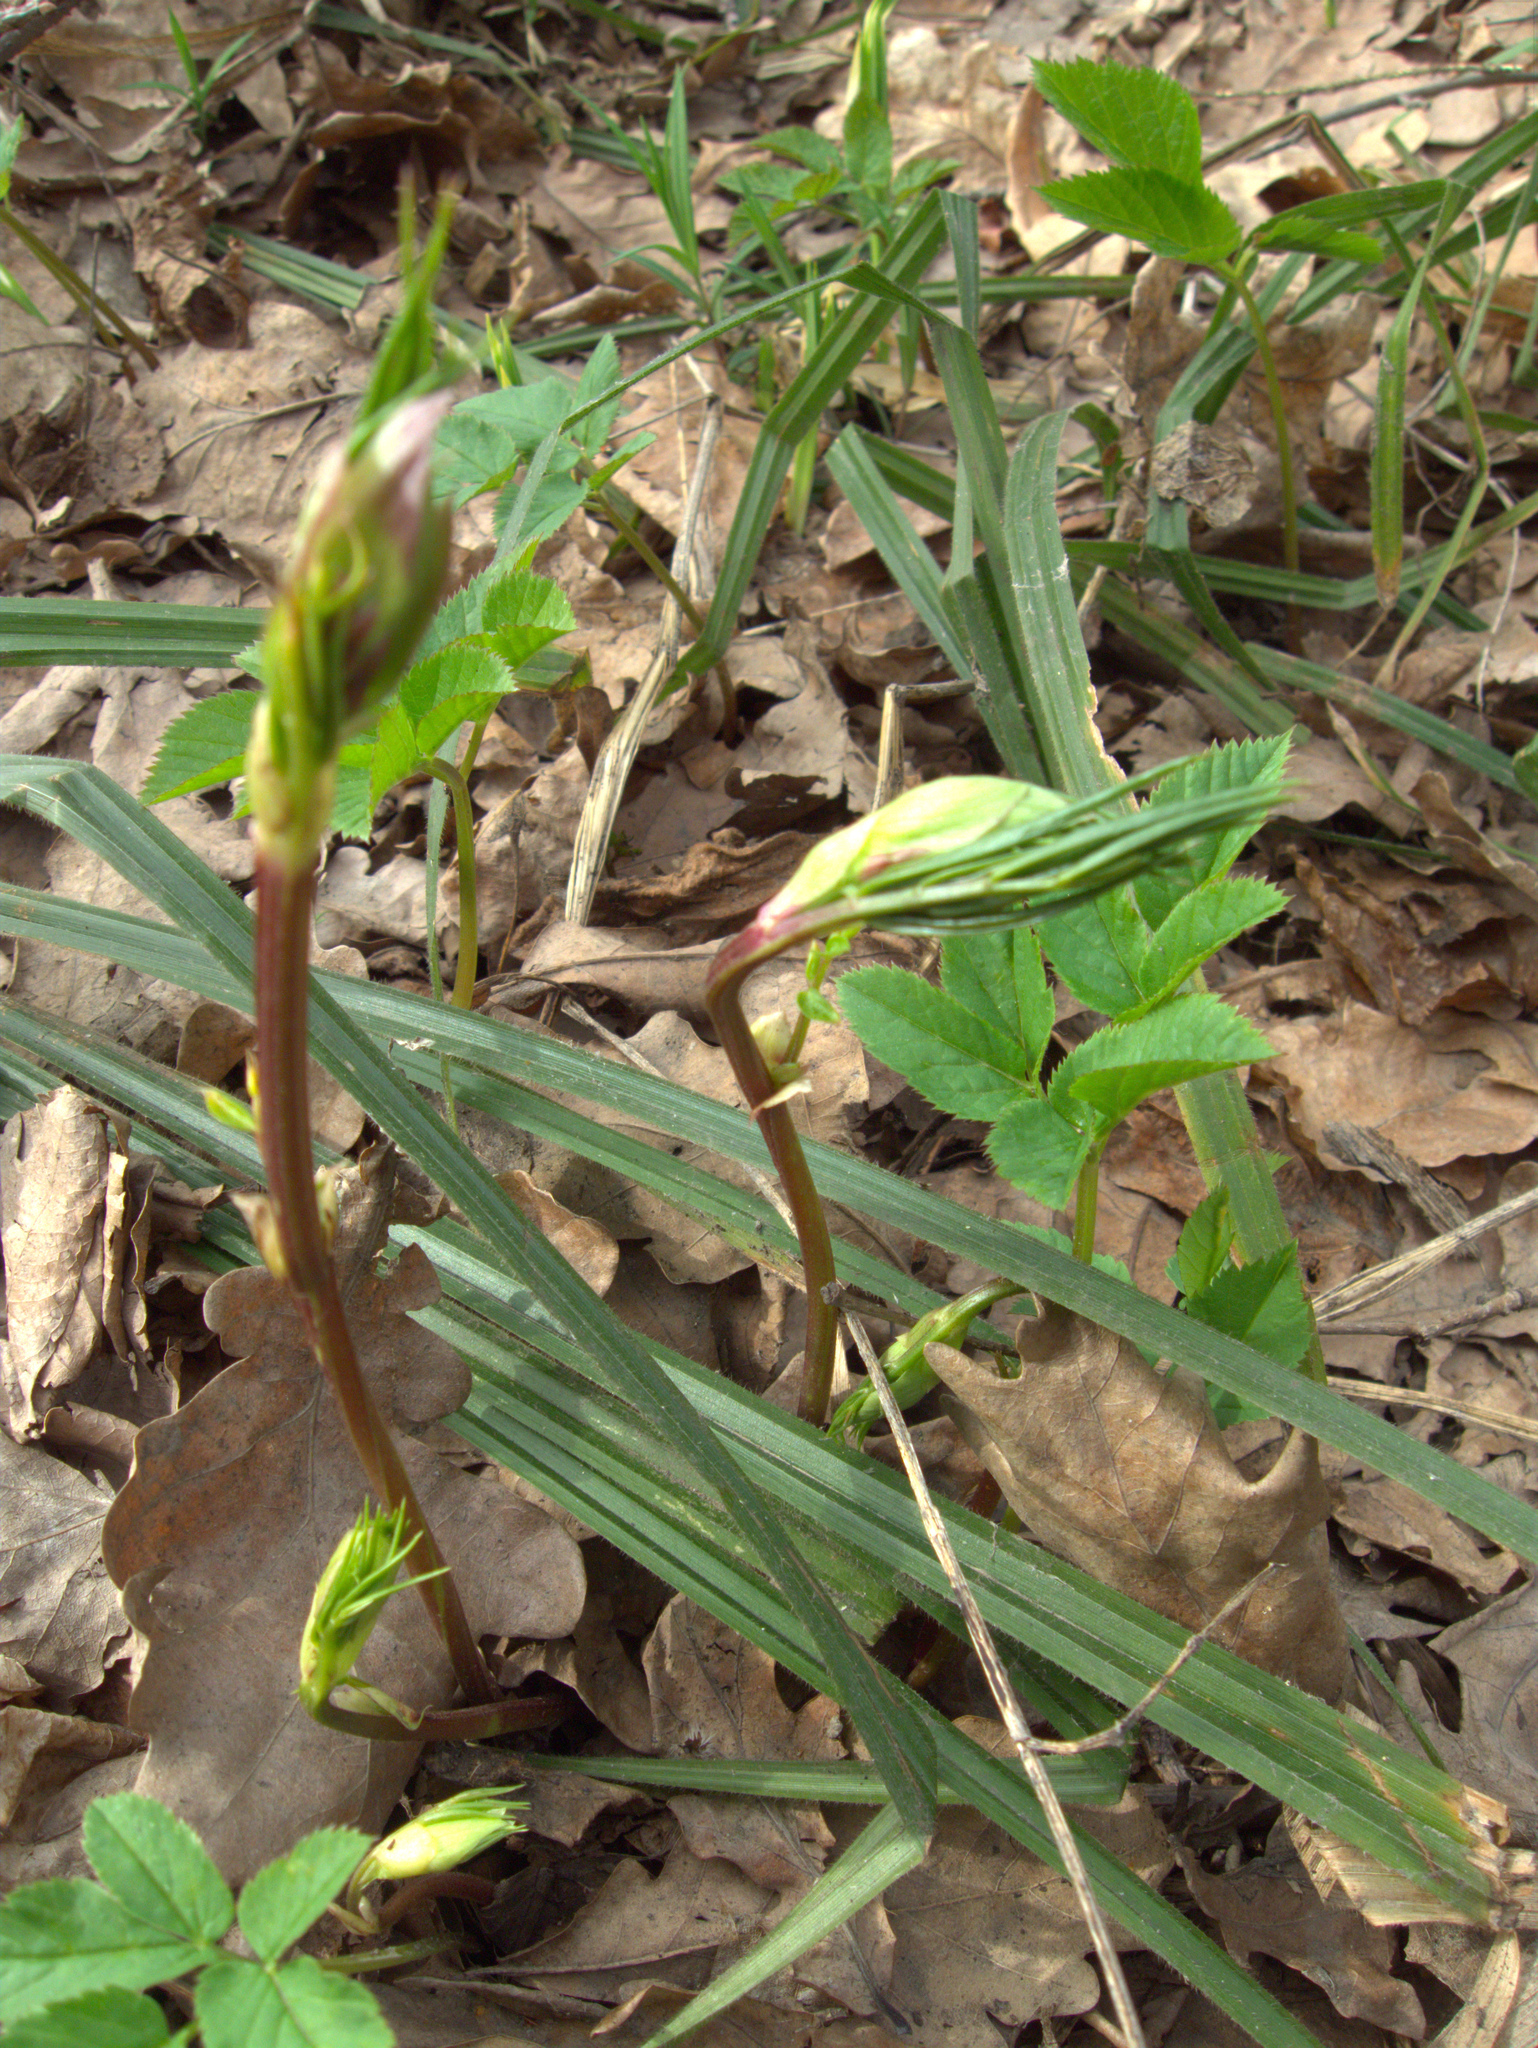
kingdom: Plantae
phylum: Tracheophyta
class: Magnoliopsida
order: Fabales
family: Fabaceae
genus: Lathyrus
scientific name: Lathyrus vernus
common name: Spring pea
